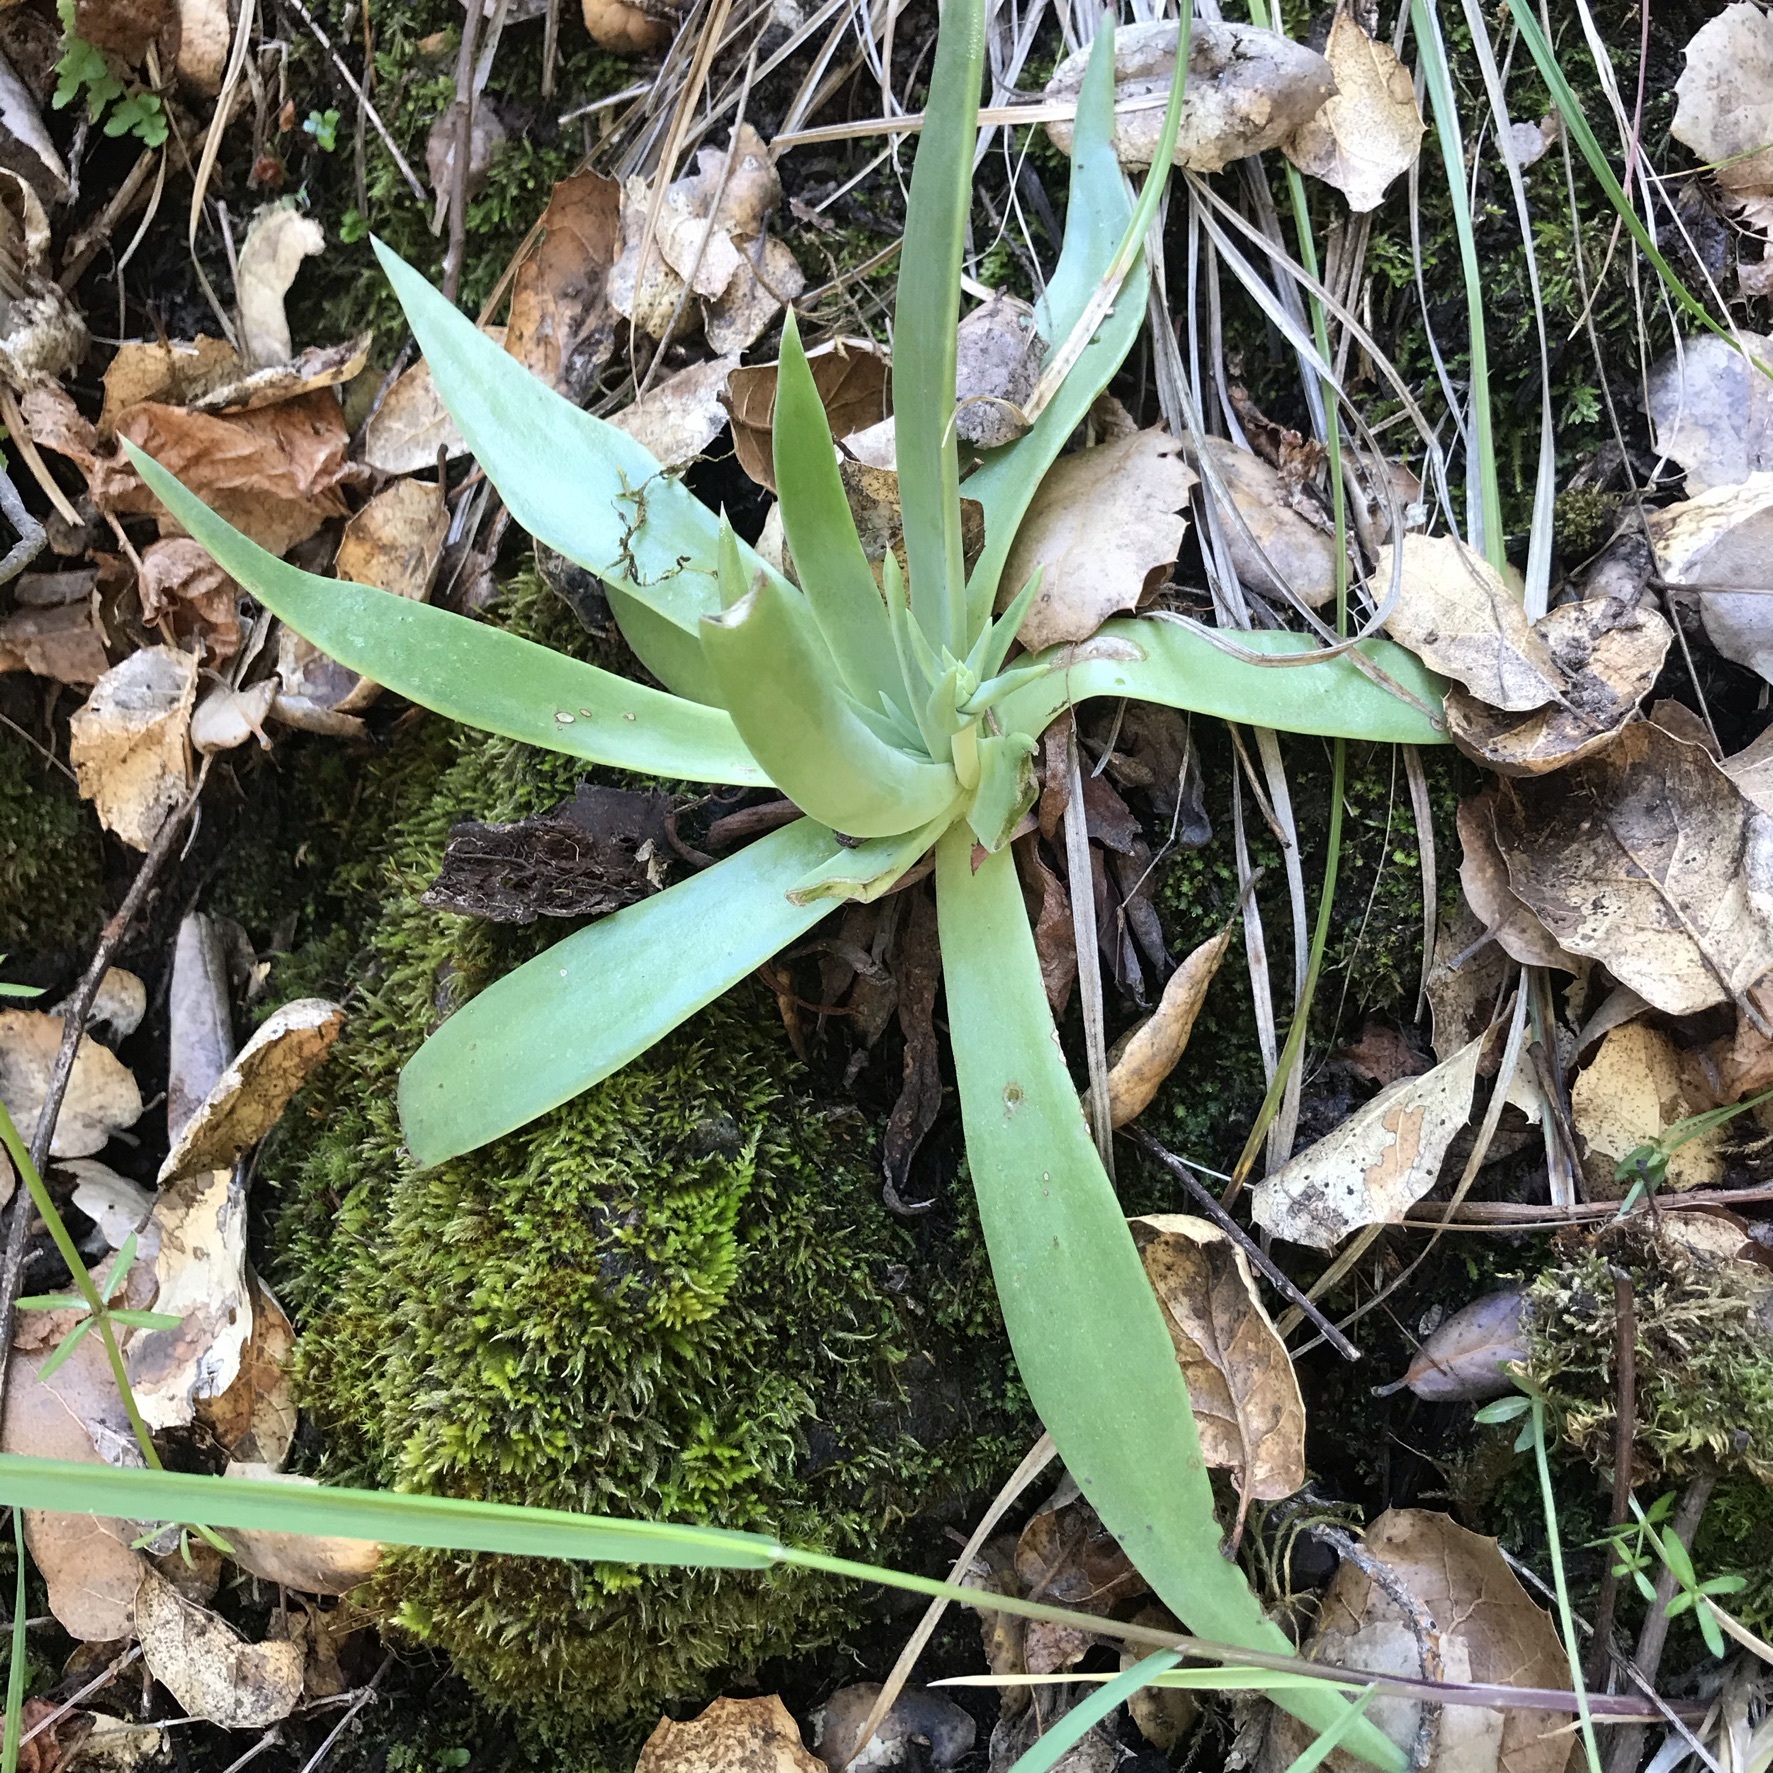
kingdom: Plantae
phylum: Tracheophyta
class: Magnoliopsida
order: Saxifragales
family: Crassulaceae
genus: Dudleya
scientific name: Dudleya lanceolata
